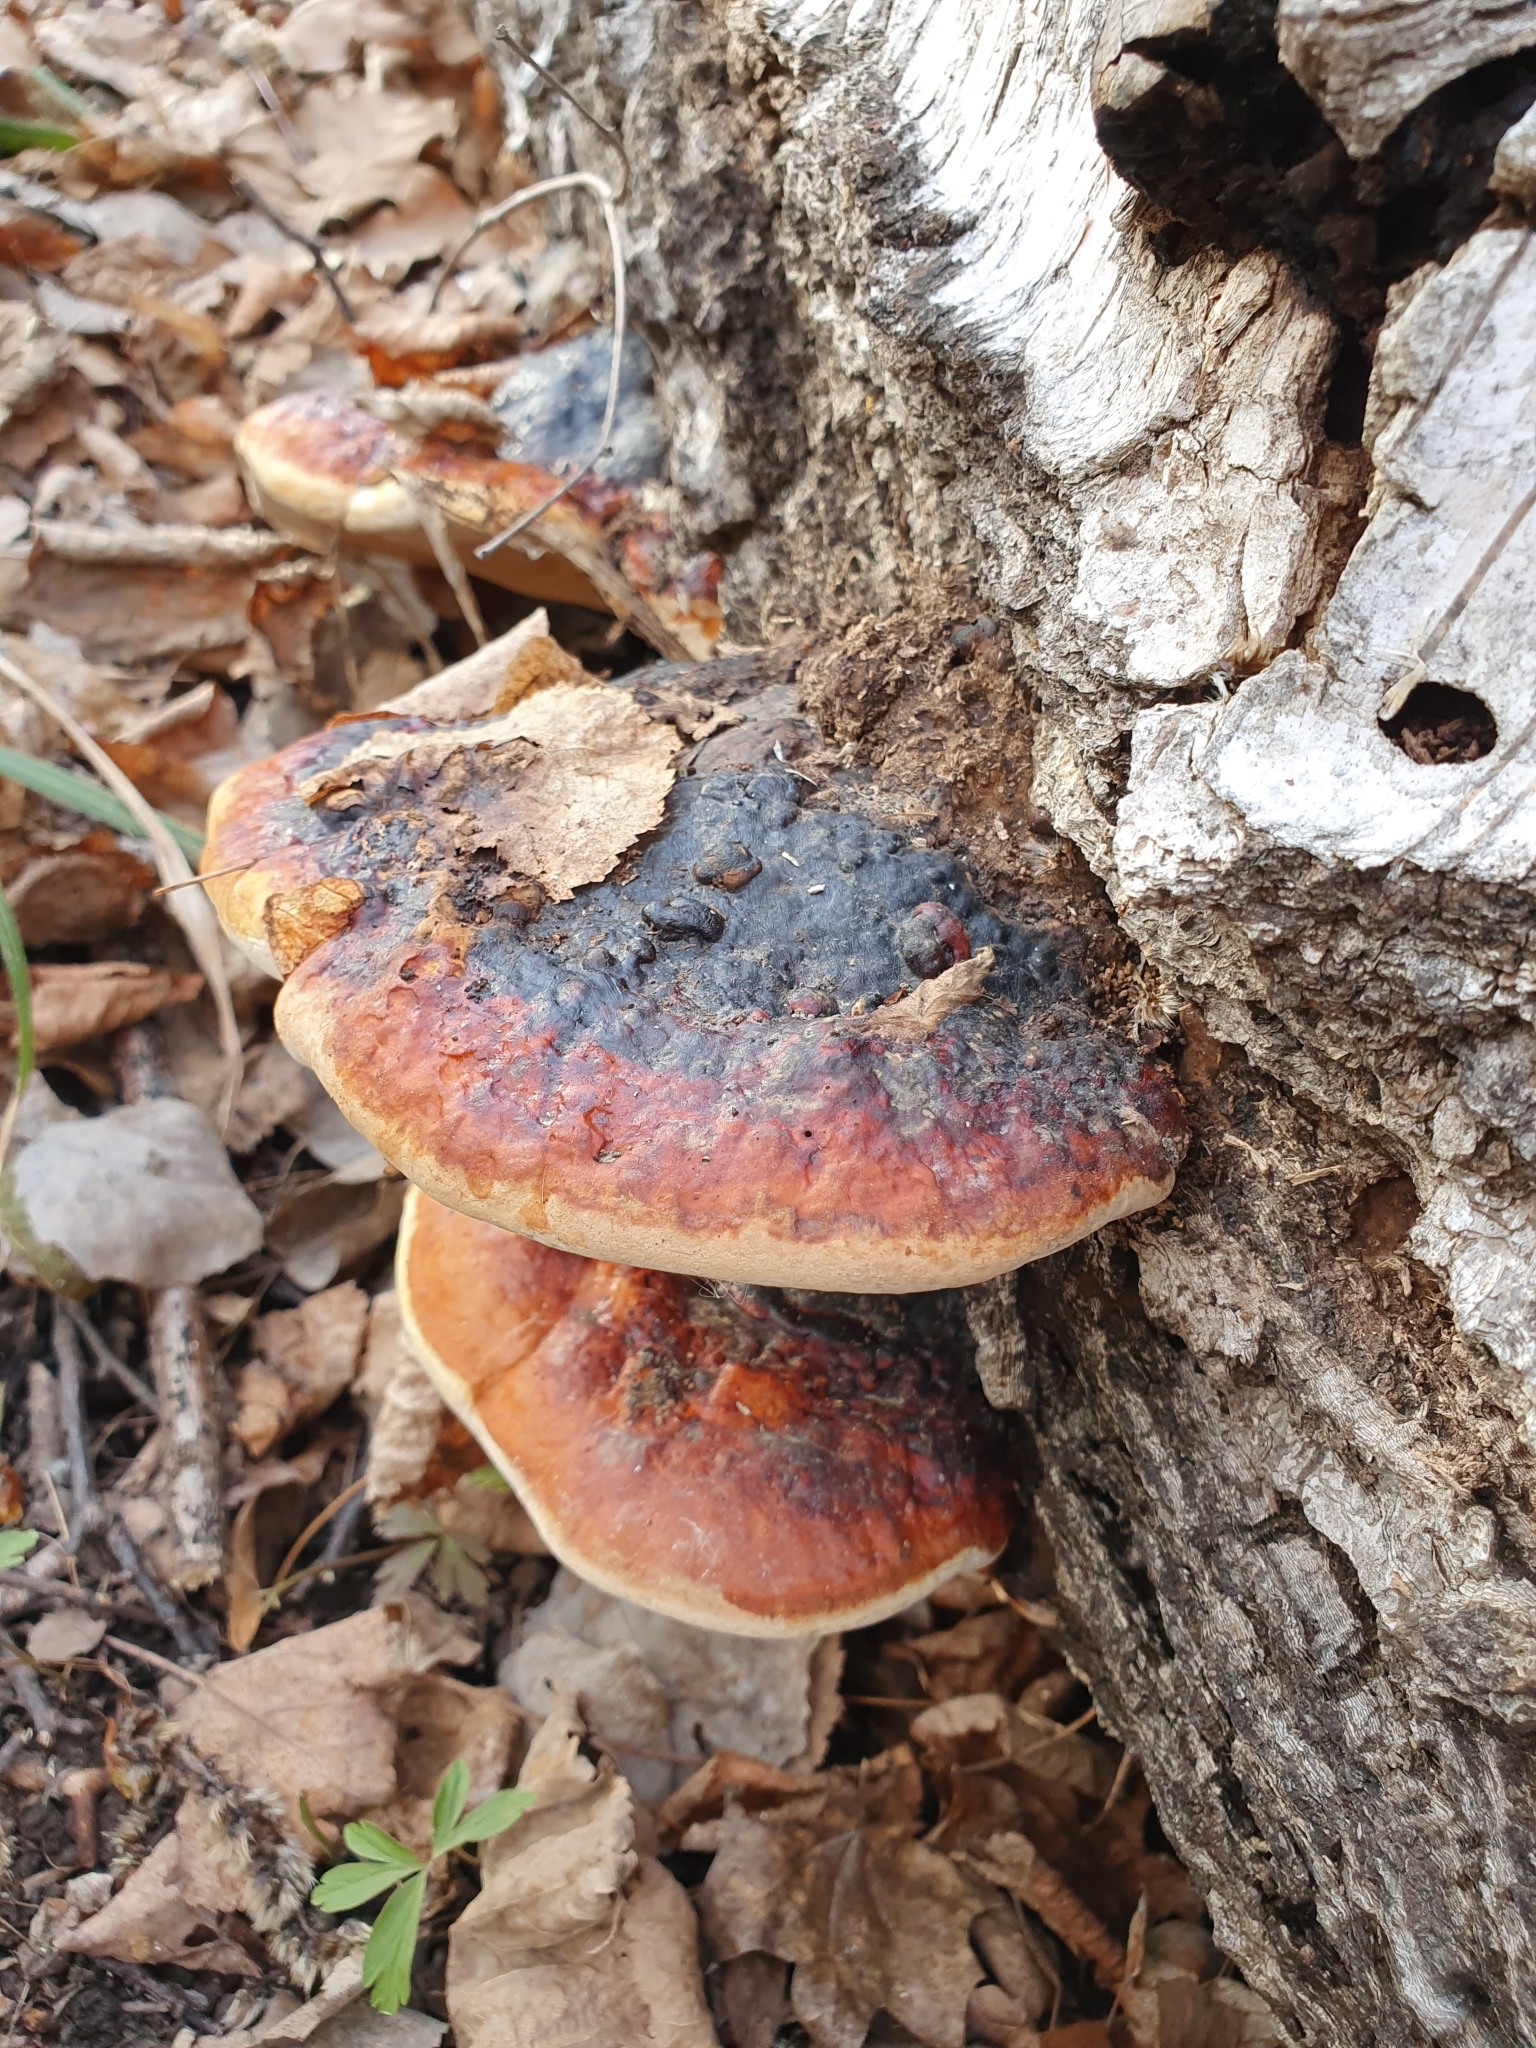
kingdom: Fungi
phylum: Basidiomycota
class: Agaricomycetes
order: Polyporales
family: Fomitopsidaceae
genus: Fomitopsis
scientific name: Fomitopsis pinicola
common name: Red-belted bracket
